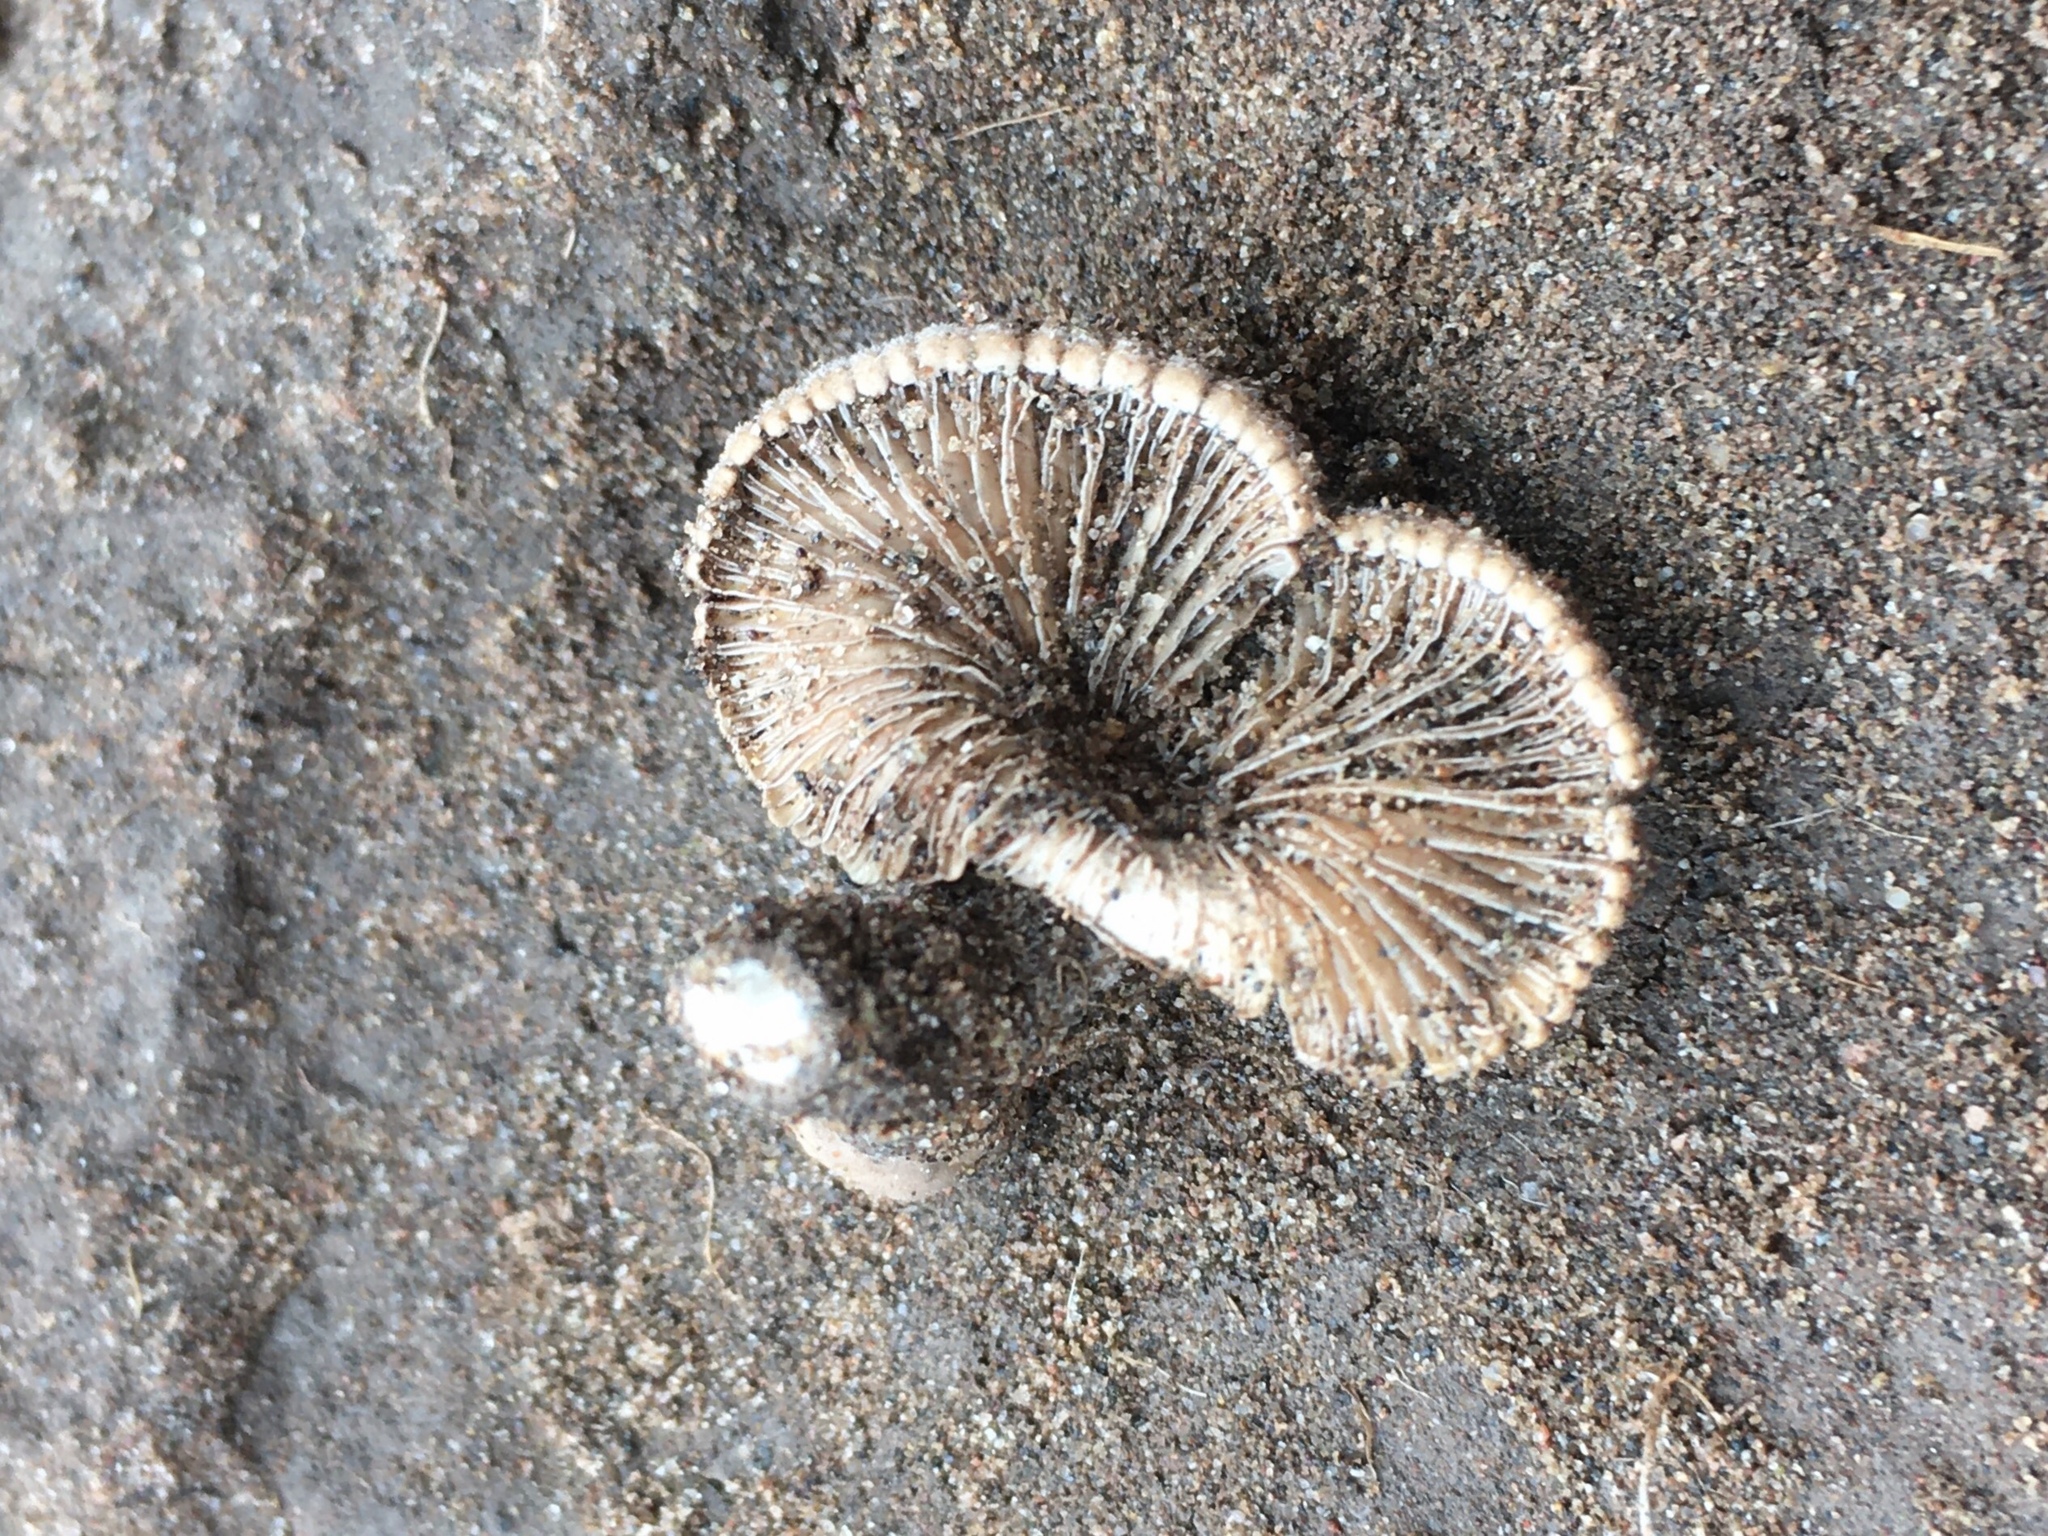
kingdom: Fungi
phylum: Basidiomycota
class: Agaricomycetes
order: Agaricales
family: Schizophyllaceae
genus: Schizophyllum
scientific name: Schizophyllum commune
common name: Common porecrust
